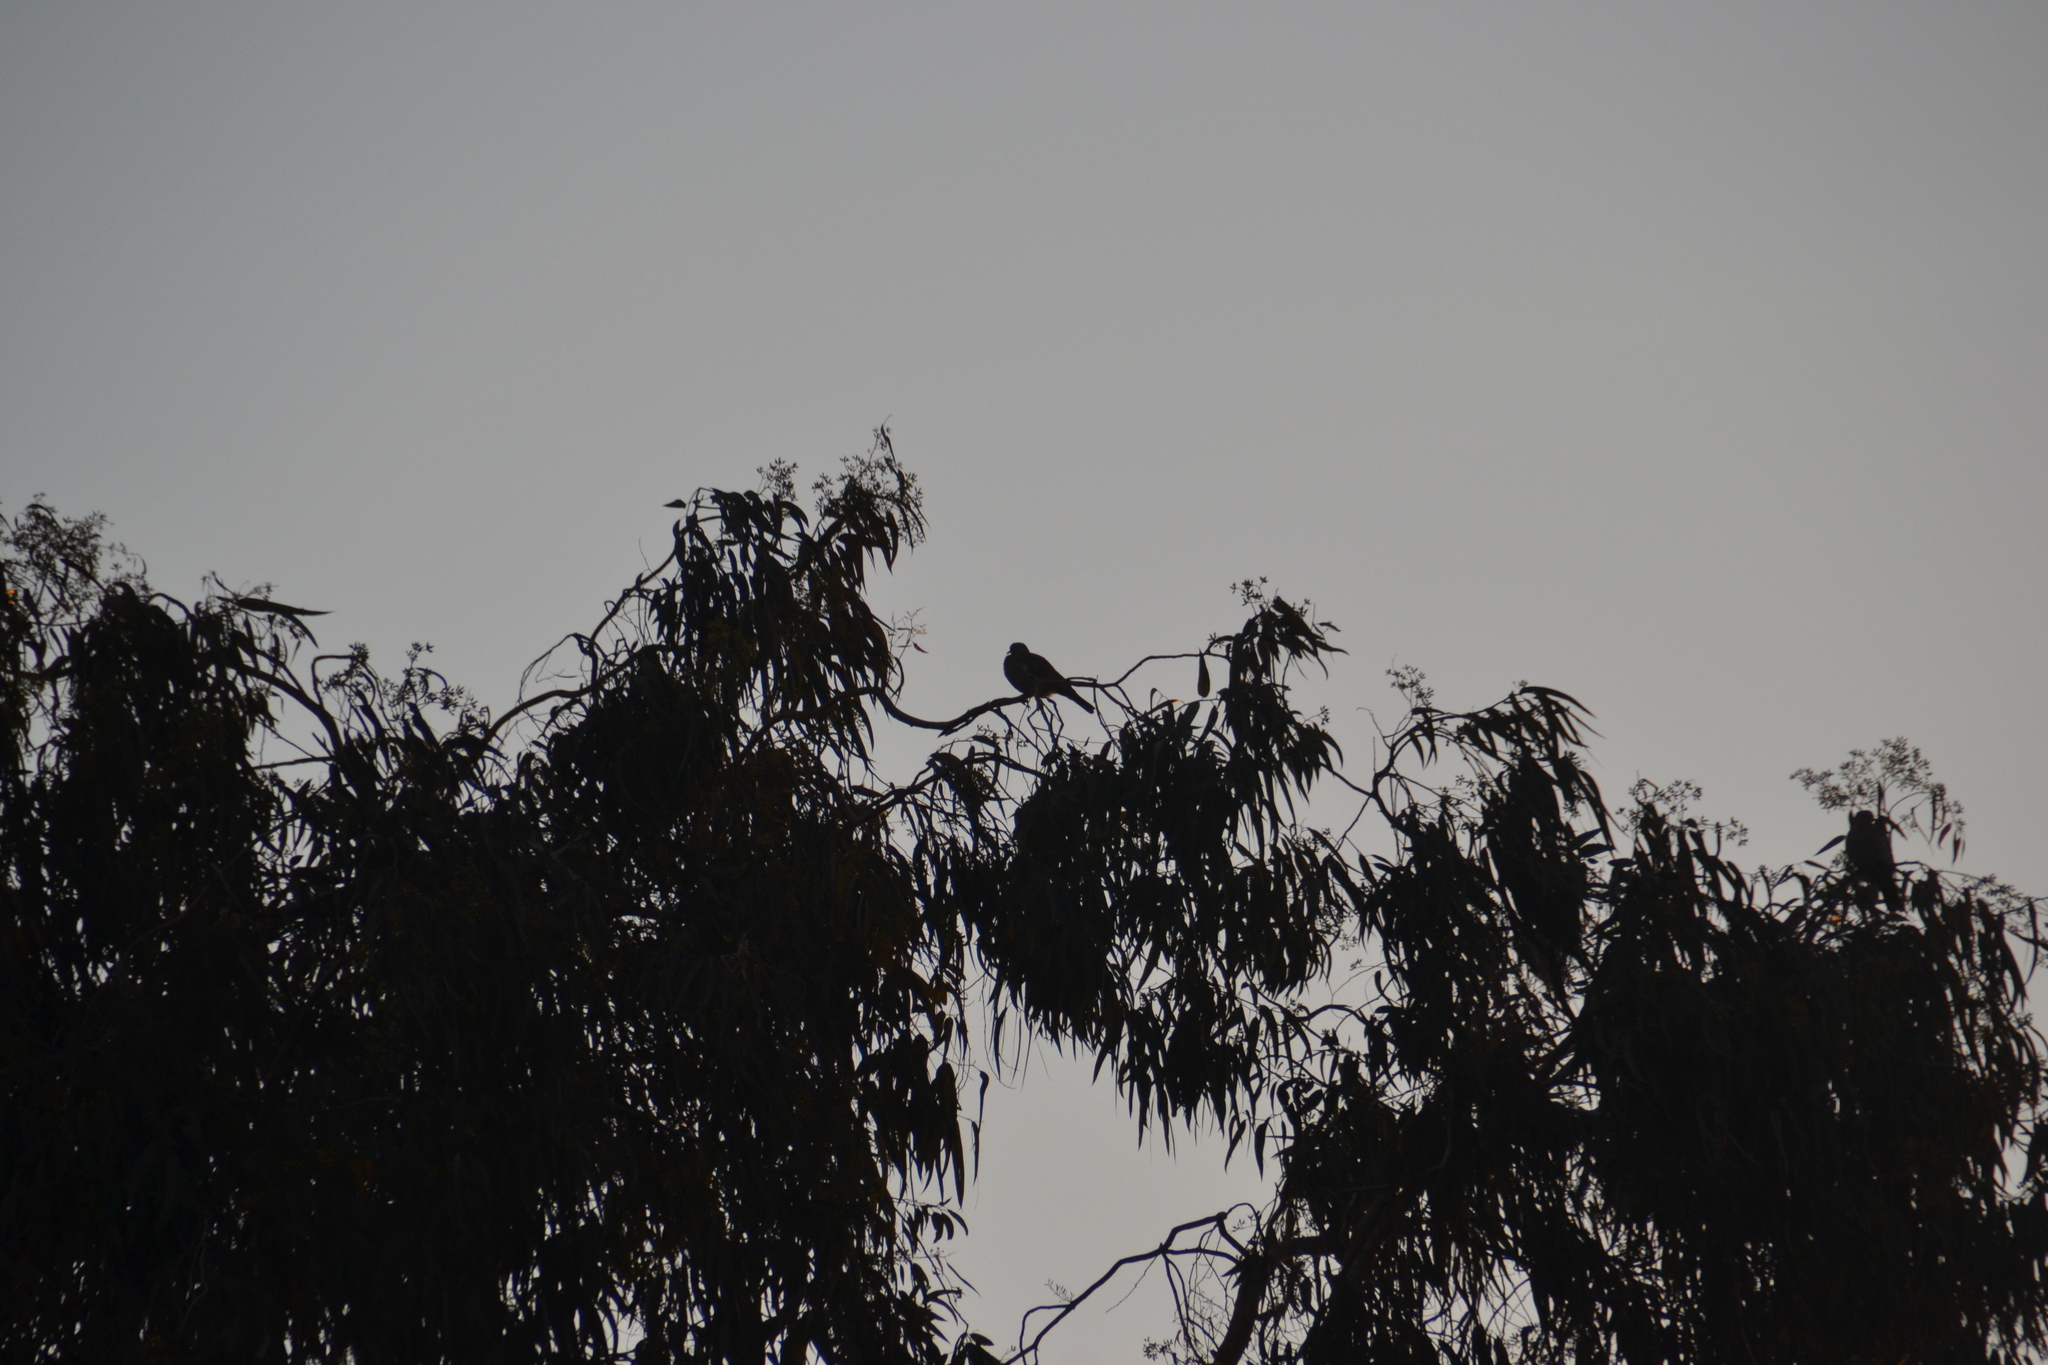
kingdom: Animalia
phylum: Chordata
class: Aves
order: Columbiformes
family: Columbidae
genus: Zenaida
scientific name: Zenaida meloda
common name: West peruvian dove
